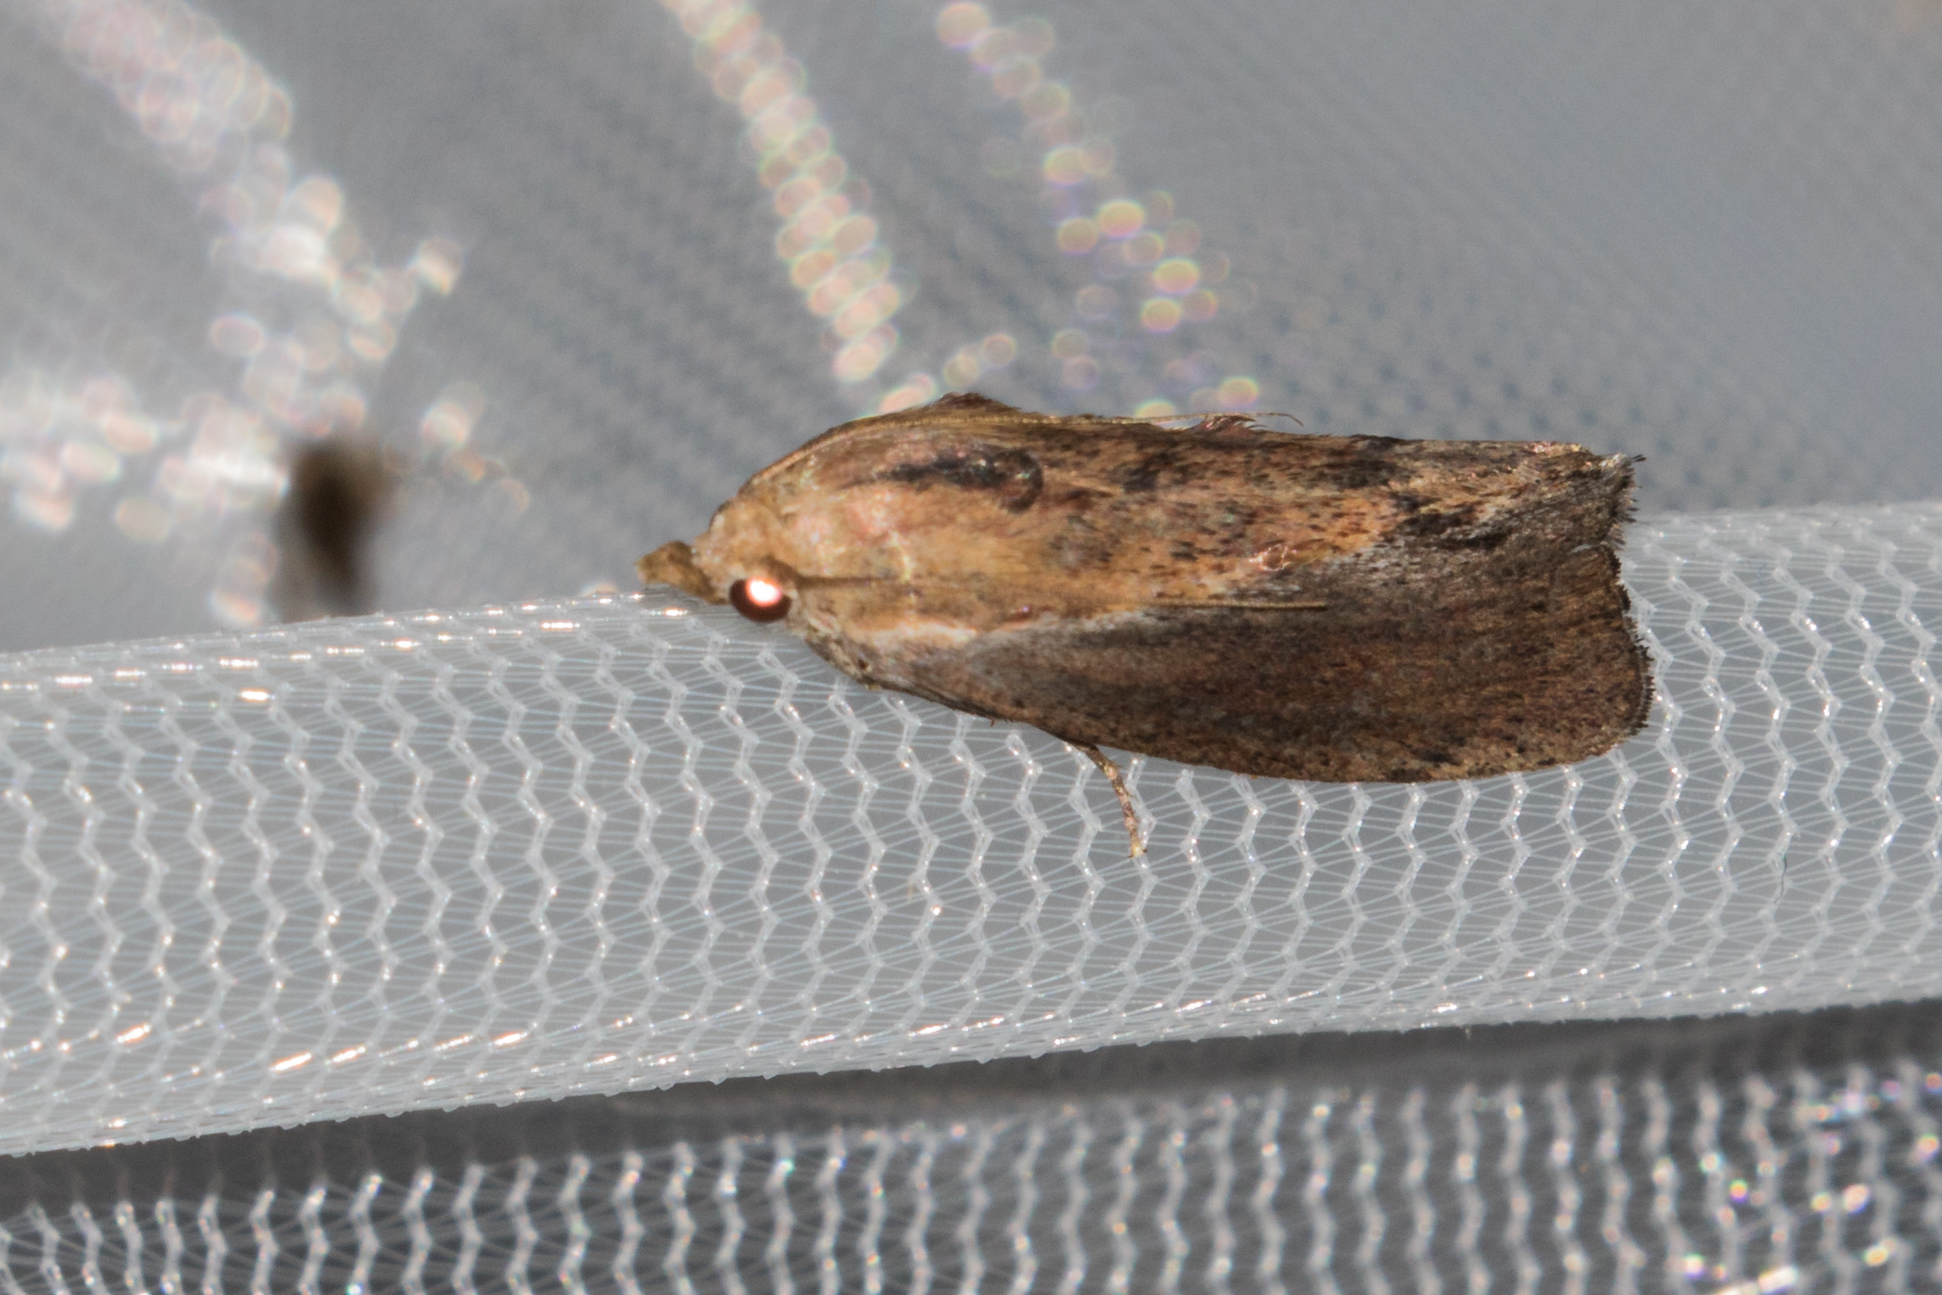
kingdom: Animalia
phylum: Arthropoda
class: Insecta
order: Lepidoptera
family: Pyralidae
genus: Galleria
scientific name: Galleria mellonella
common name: Greater wax moth
